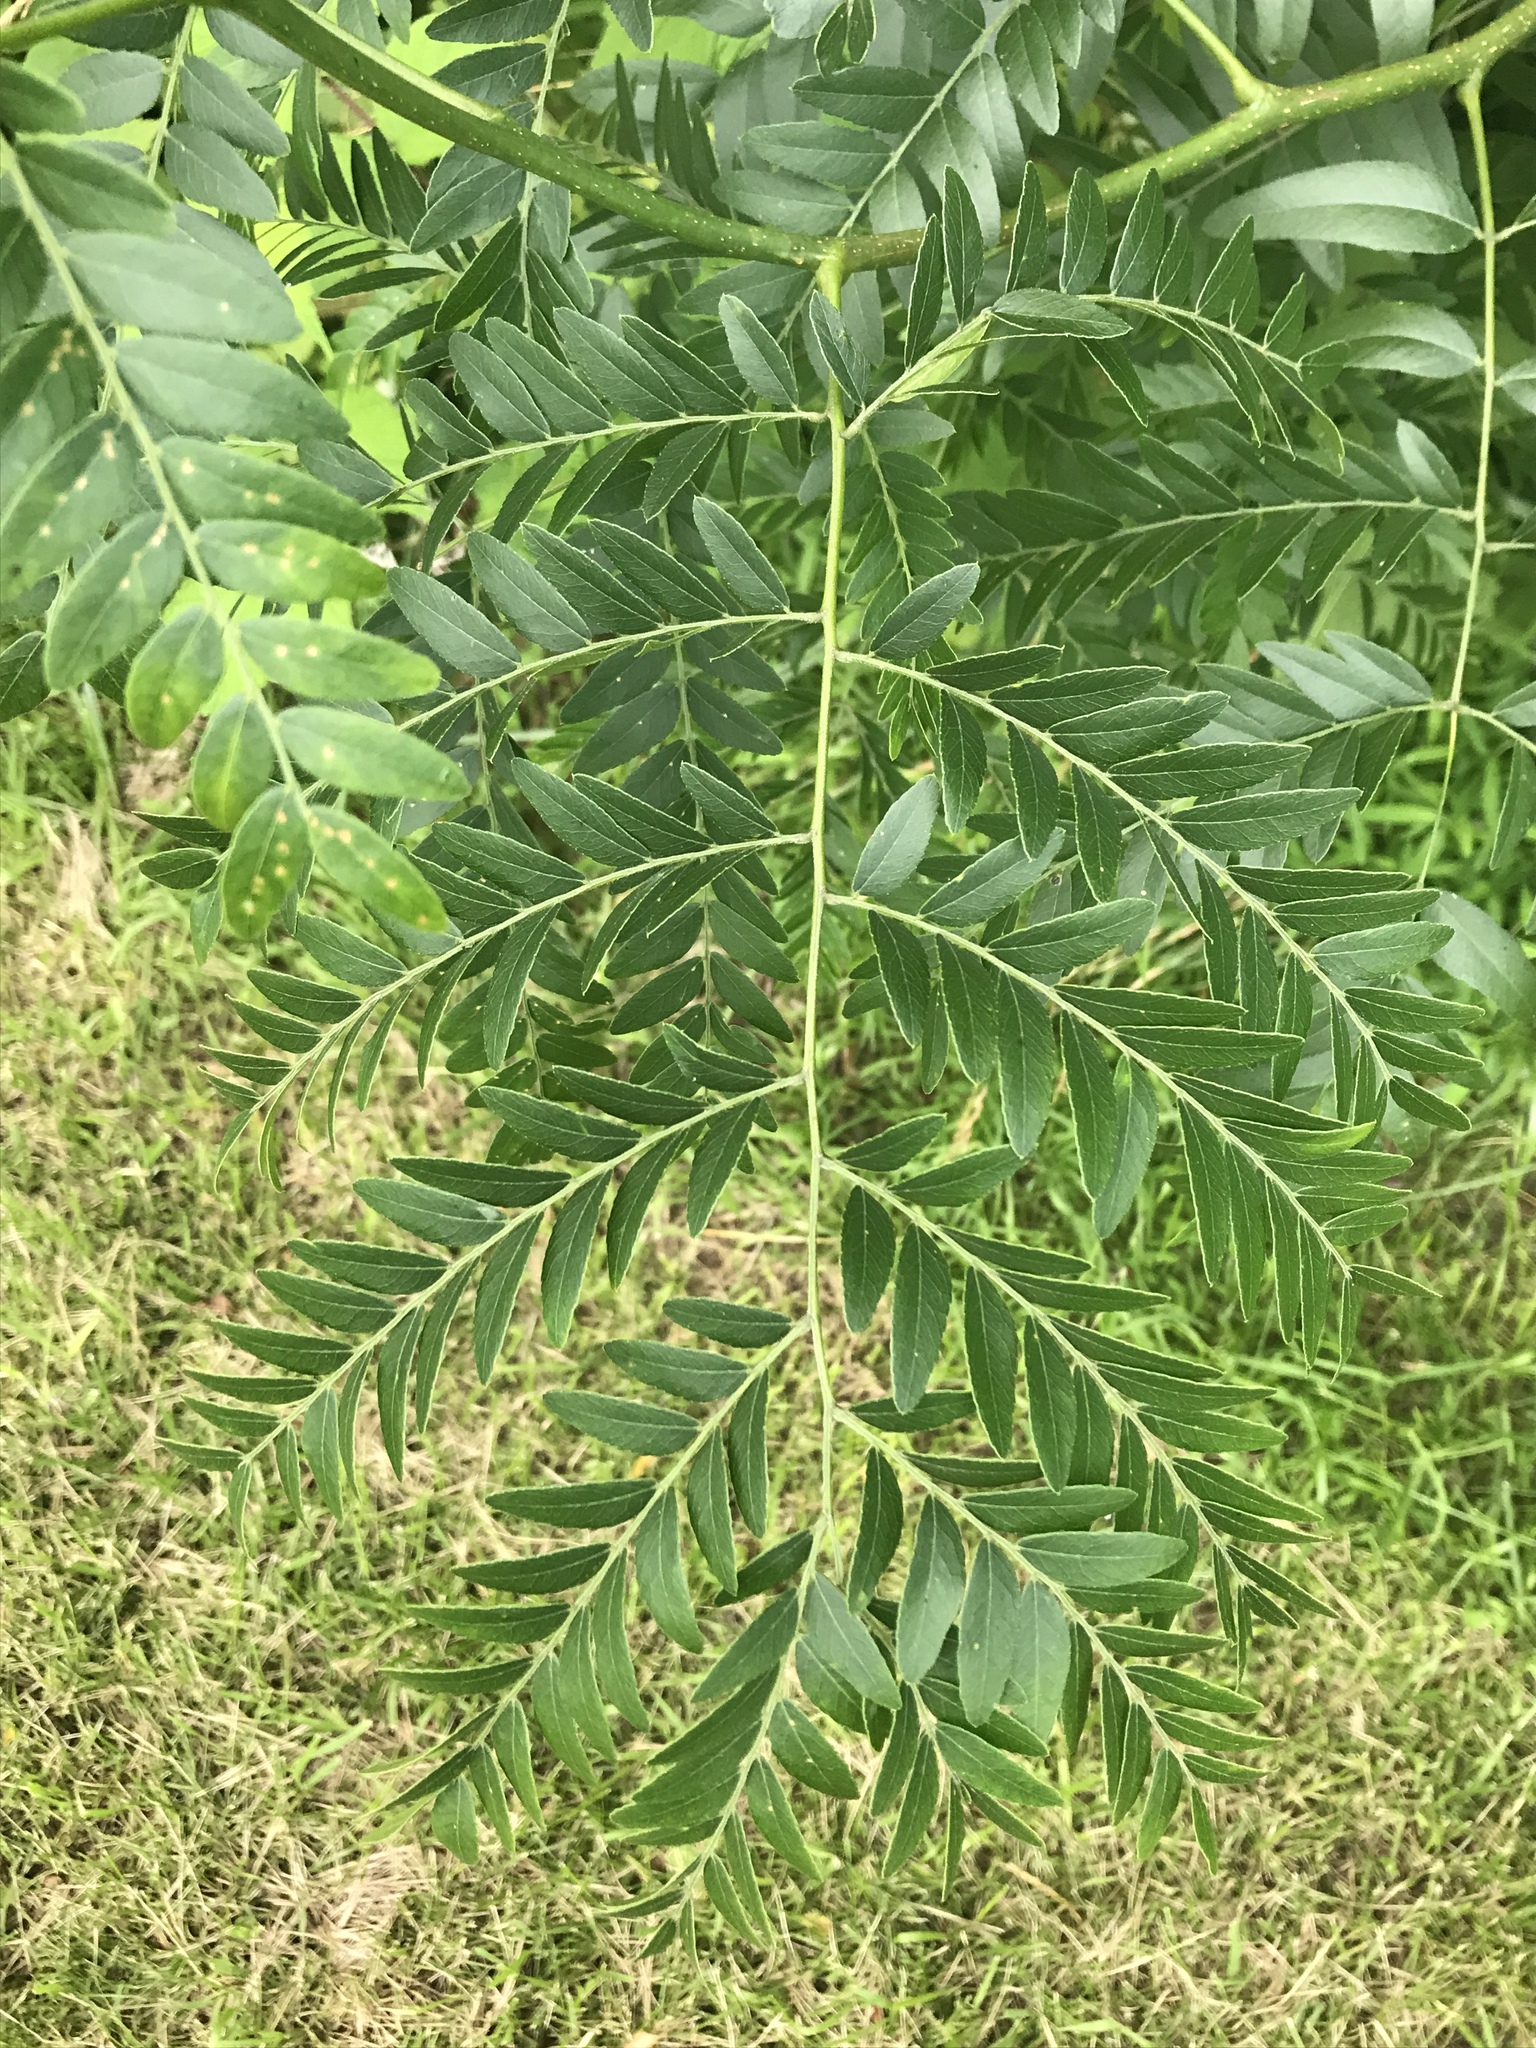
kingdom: Plantae
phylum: Tracheophyta
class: Magnoliopsida
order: Fabales
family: Fabaceae
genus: Gleditsia
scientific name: Gleditsia triacanthos
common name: Common honeylocust
